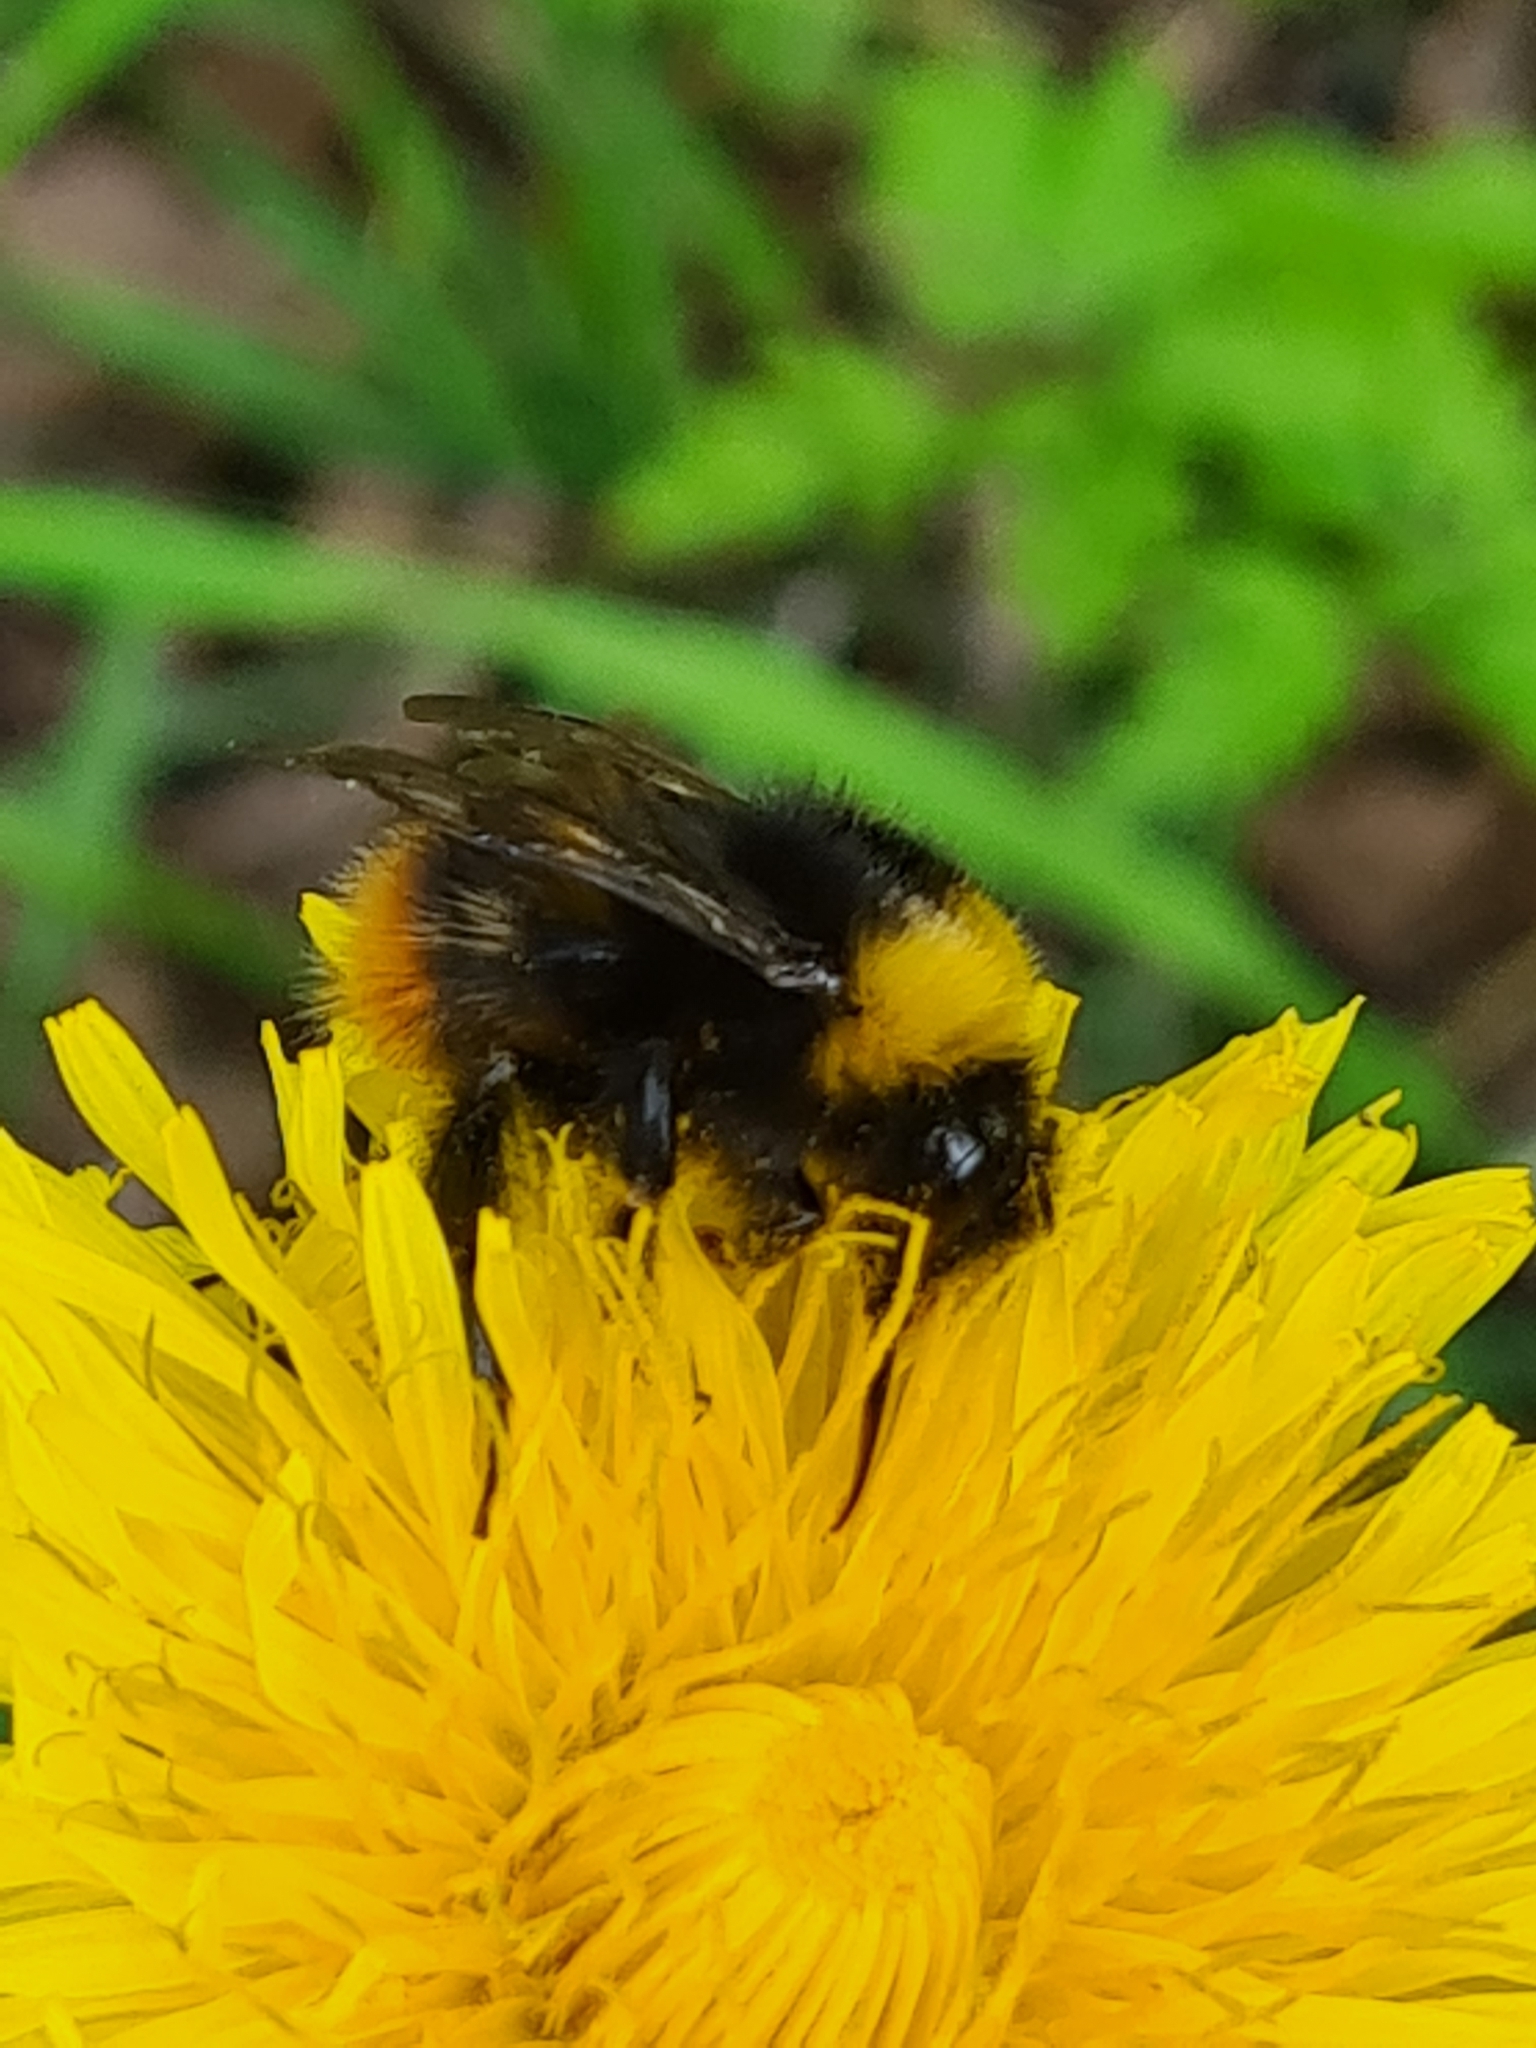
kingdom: Animalia
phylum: Arthropoda
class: Insecta
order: Hymenoptera
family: Apidae
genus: Bombus
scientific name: Bombus pratorum
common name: Early humble-bee
